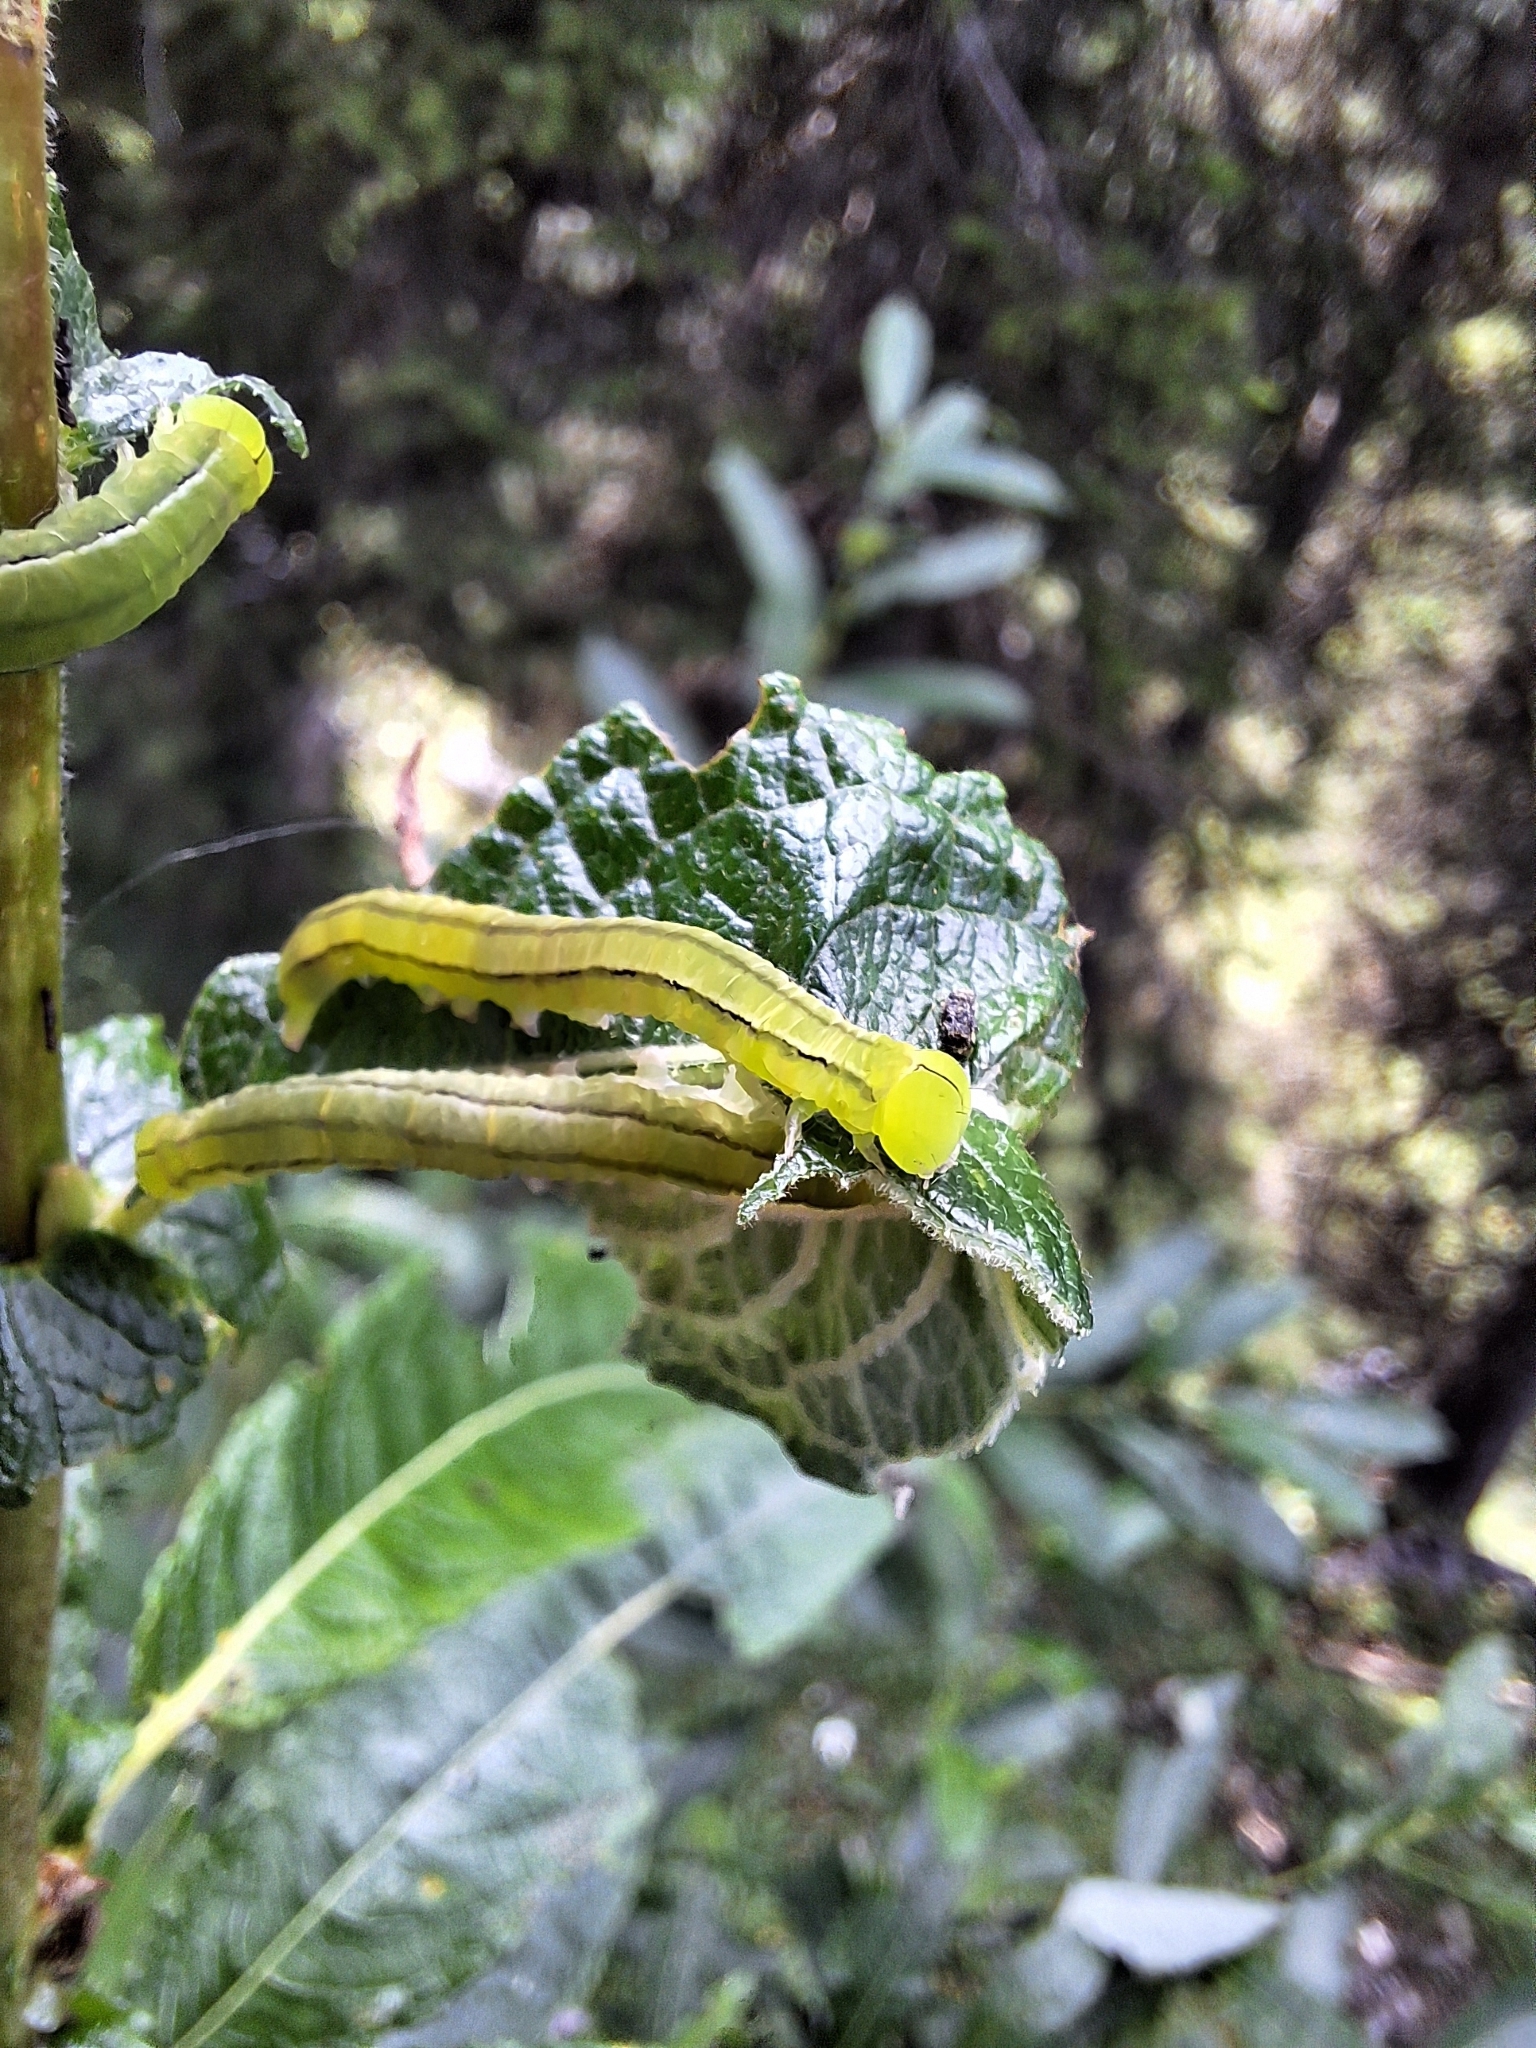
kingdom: Animalia
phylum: Arthropoda
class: Insecta
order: Lepidoptera
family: Erebidae
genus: Scoliopteryx
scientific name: Scoliopteryx libatrix
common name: Herald
